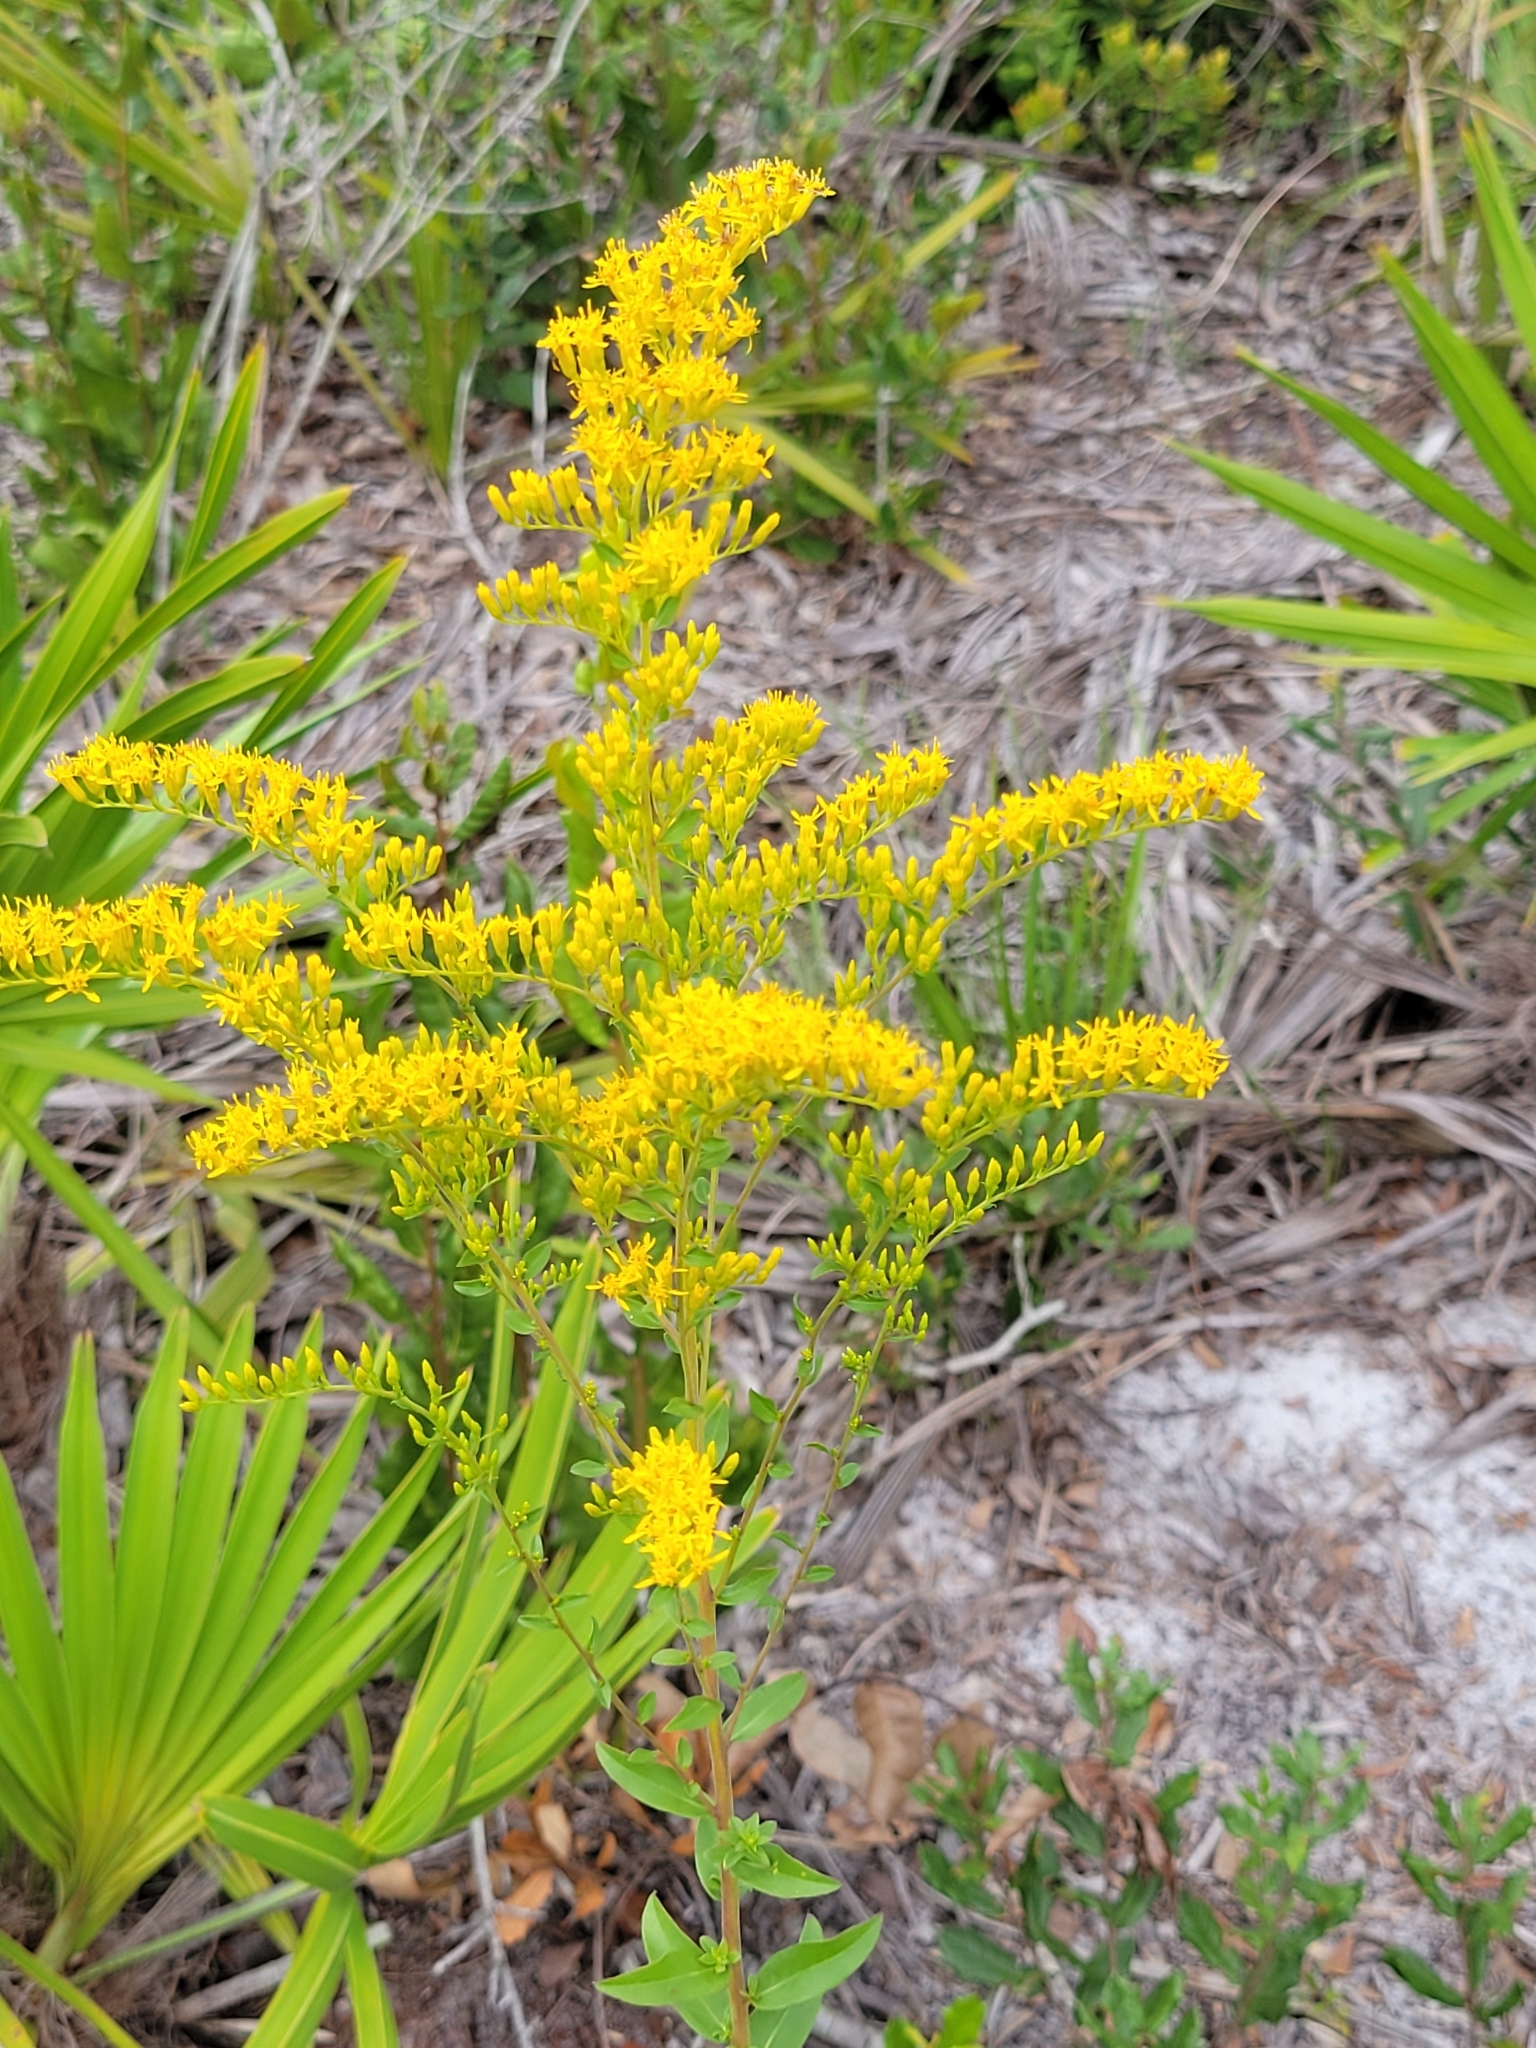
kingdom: Plantae
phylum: Tracheophyta
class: Magnoliopsida
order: Asterales
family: Asteraceae
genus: Solidago
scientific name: Solidago chapmanii
